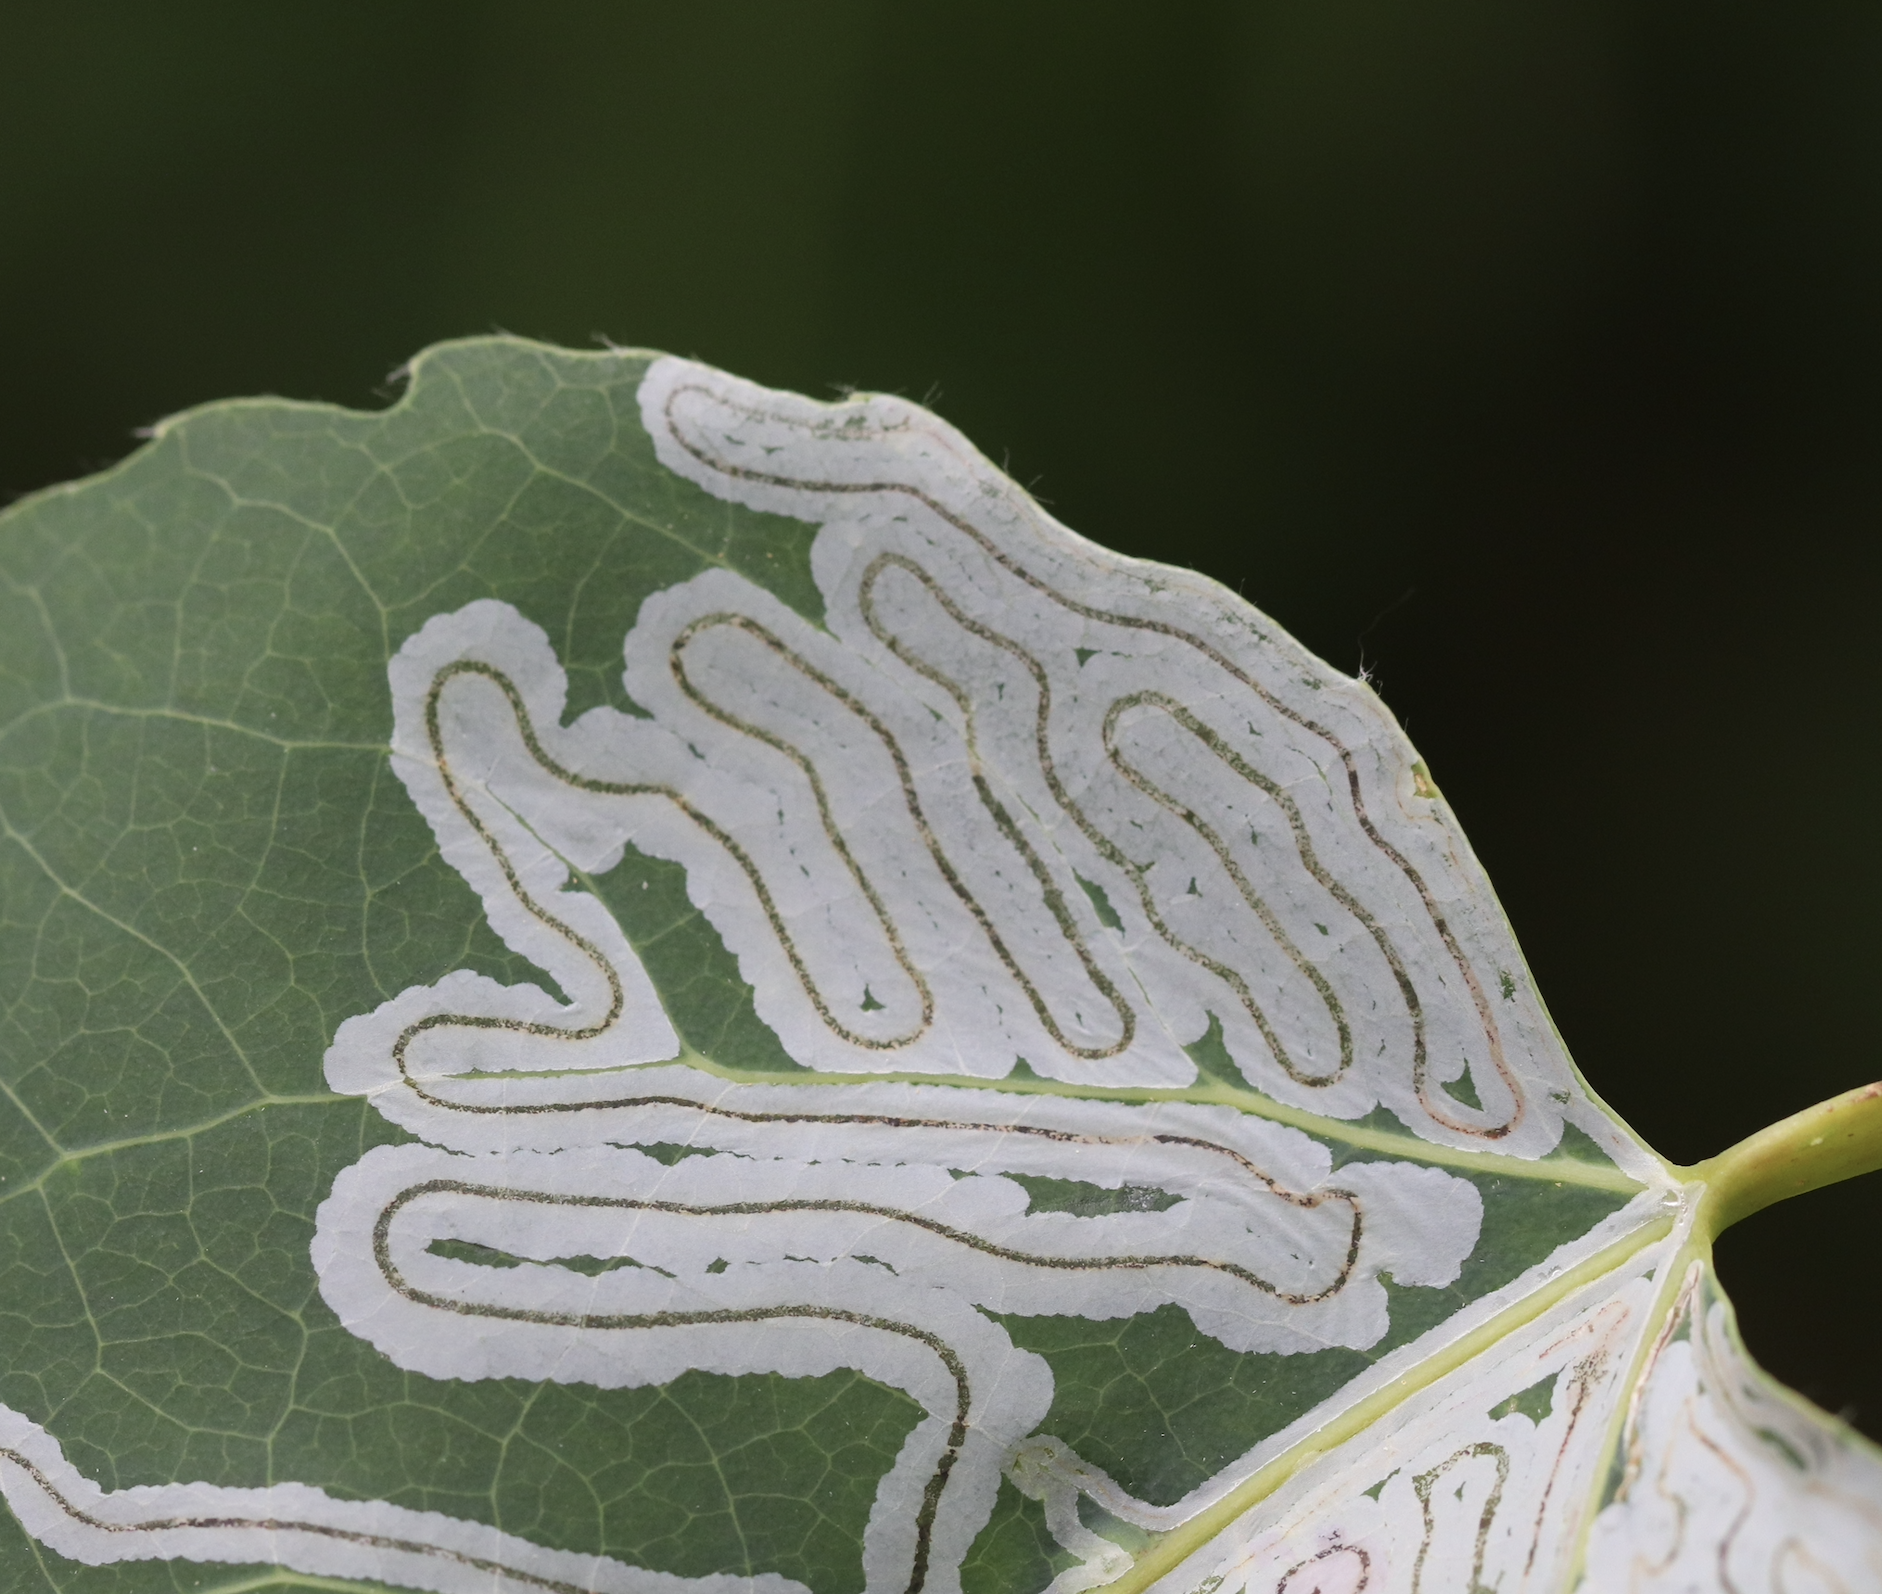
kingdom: Animalia
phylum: Arthropoda
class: Insecta
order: Lepidoptera
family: Gracillariidae
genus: Phyllocnistis
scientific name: Phyllocnistis populiella
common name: Aspen serpentine leafminer moth
